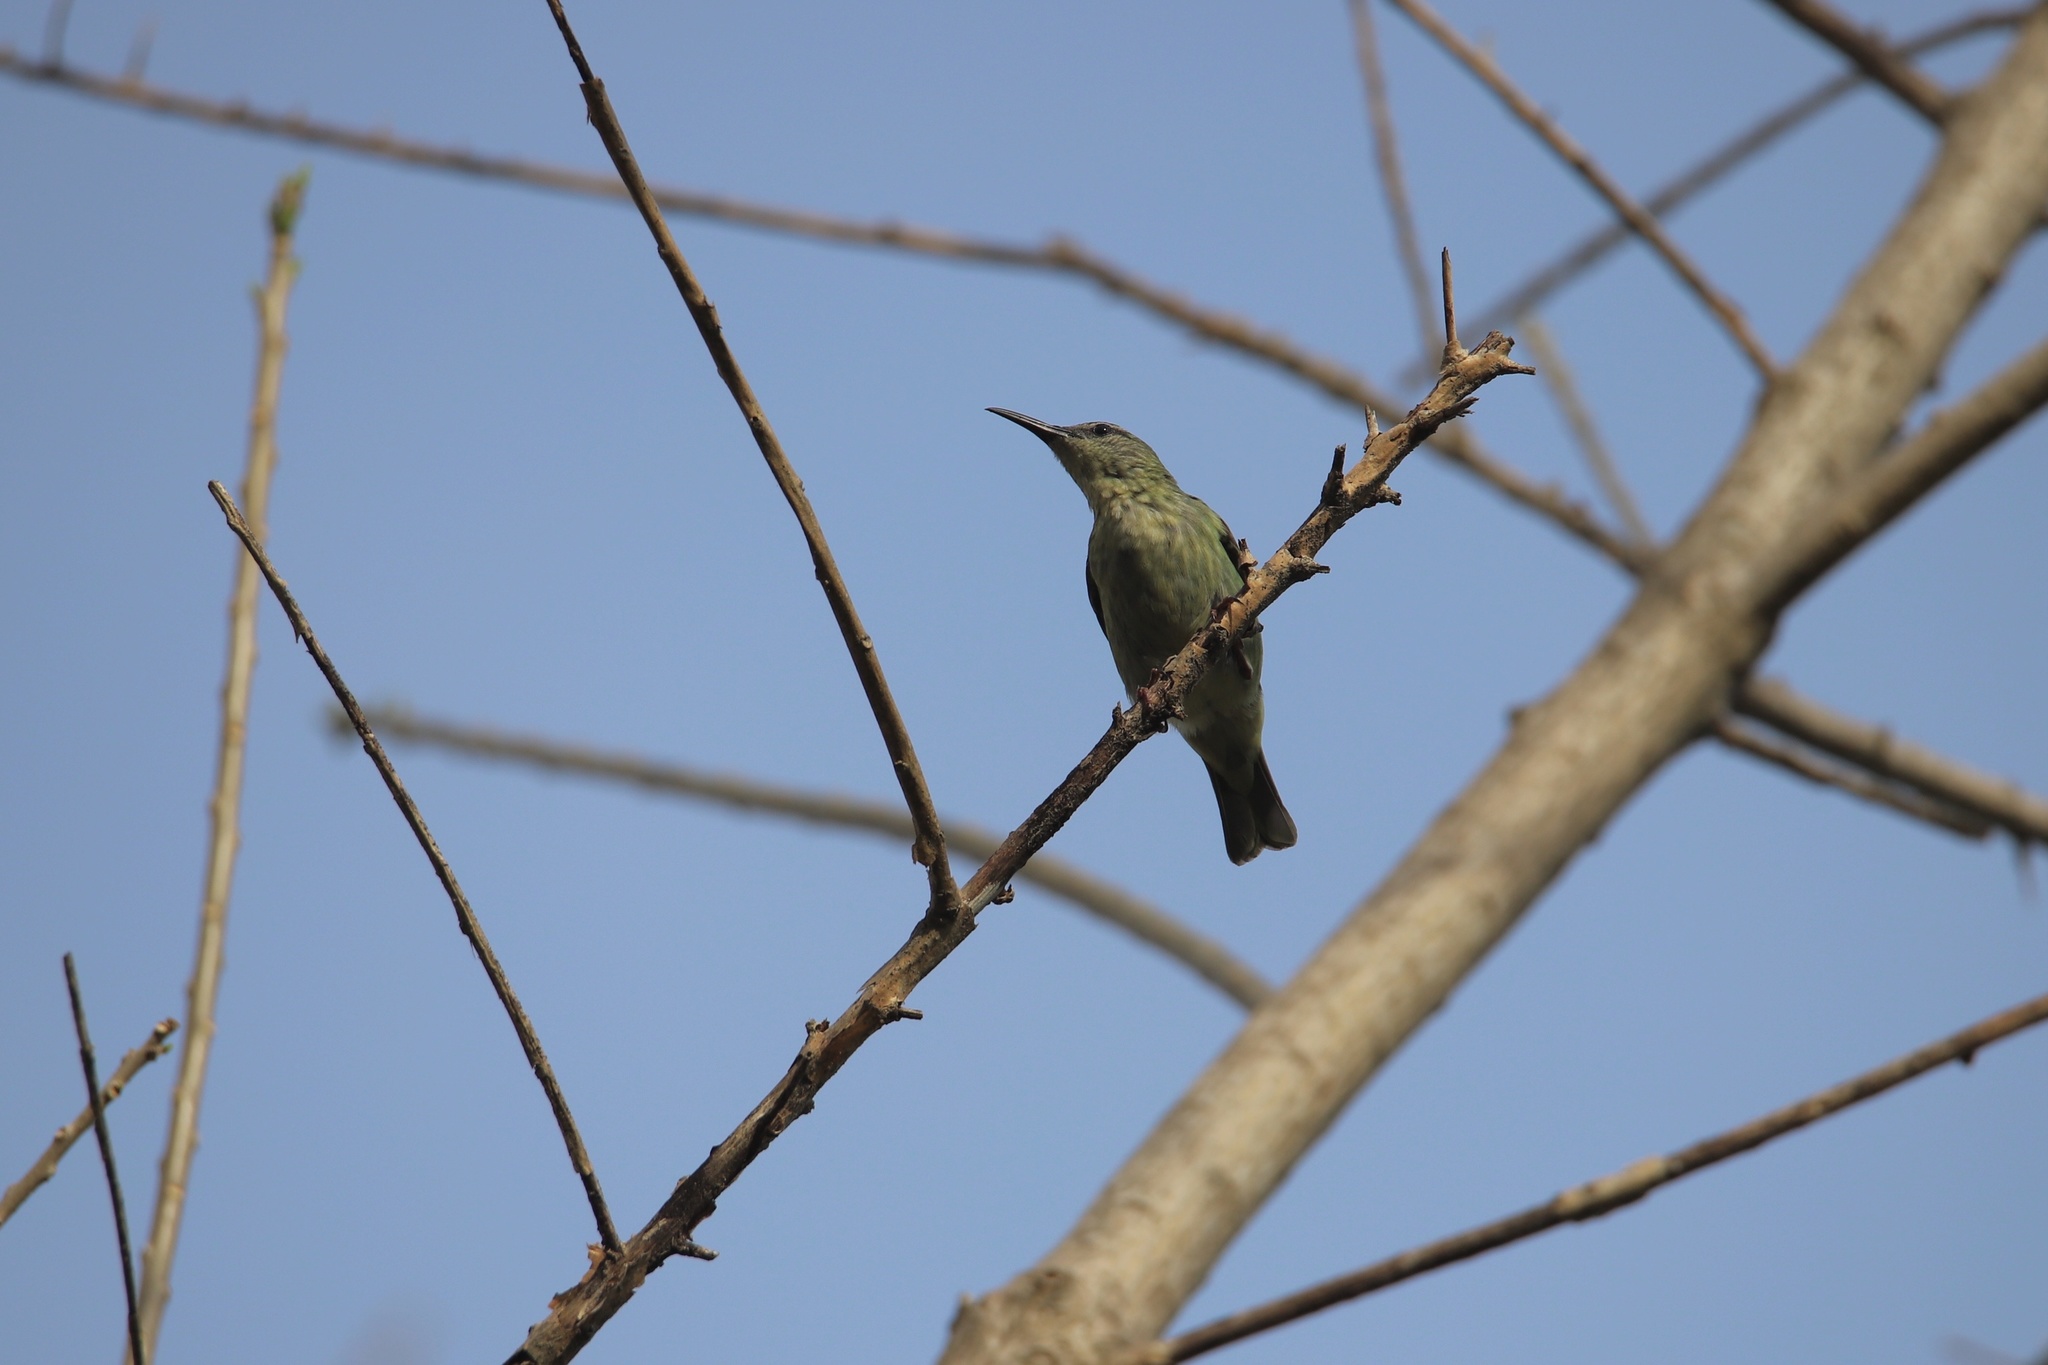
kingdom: Animalia
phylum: Chordata
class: Aves
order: Passeriformes
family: Thraupidae
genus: Cyanerpes
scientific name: Cyanerpes cyaneus
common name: Red-legged honeycreeper
